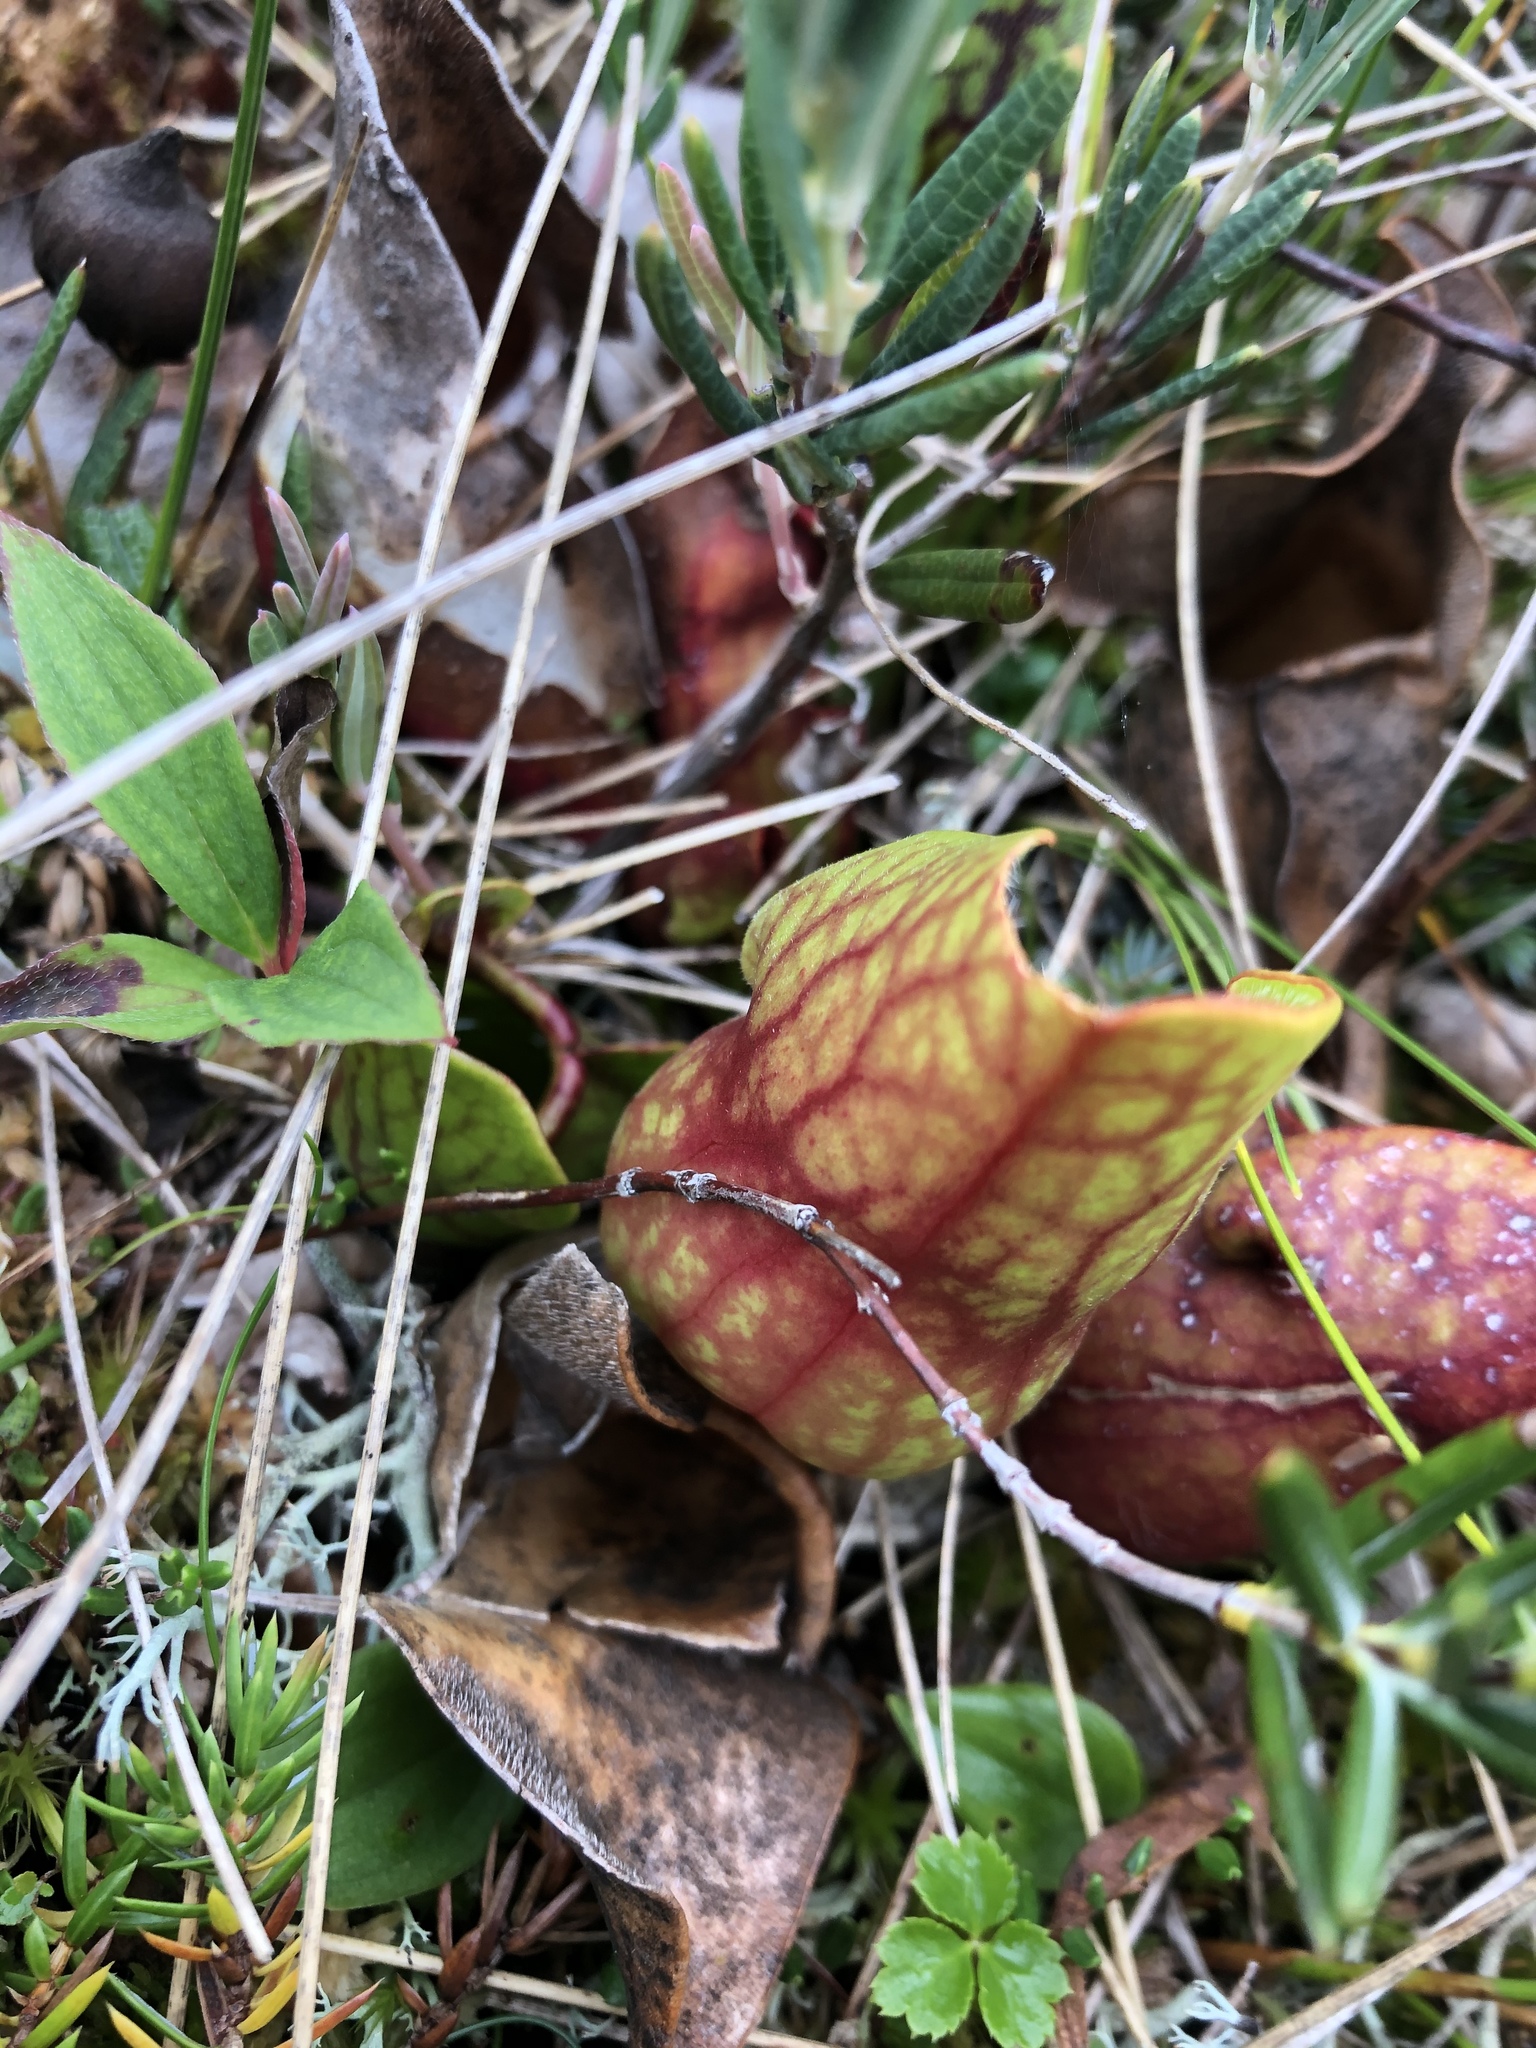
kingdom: Plantae
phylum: Tracheophyta
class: Magnoliopsida
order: Ericales
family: Sarraceniaceae
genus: Sarracenia
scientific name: Sarracenia purpurea
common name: Pitcherplant
